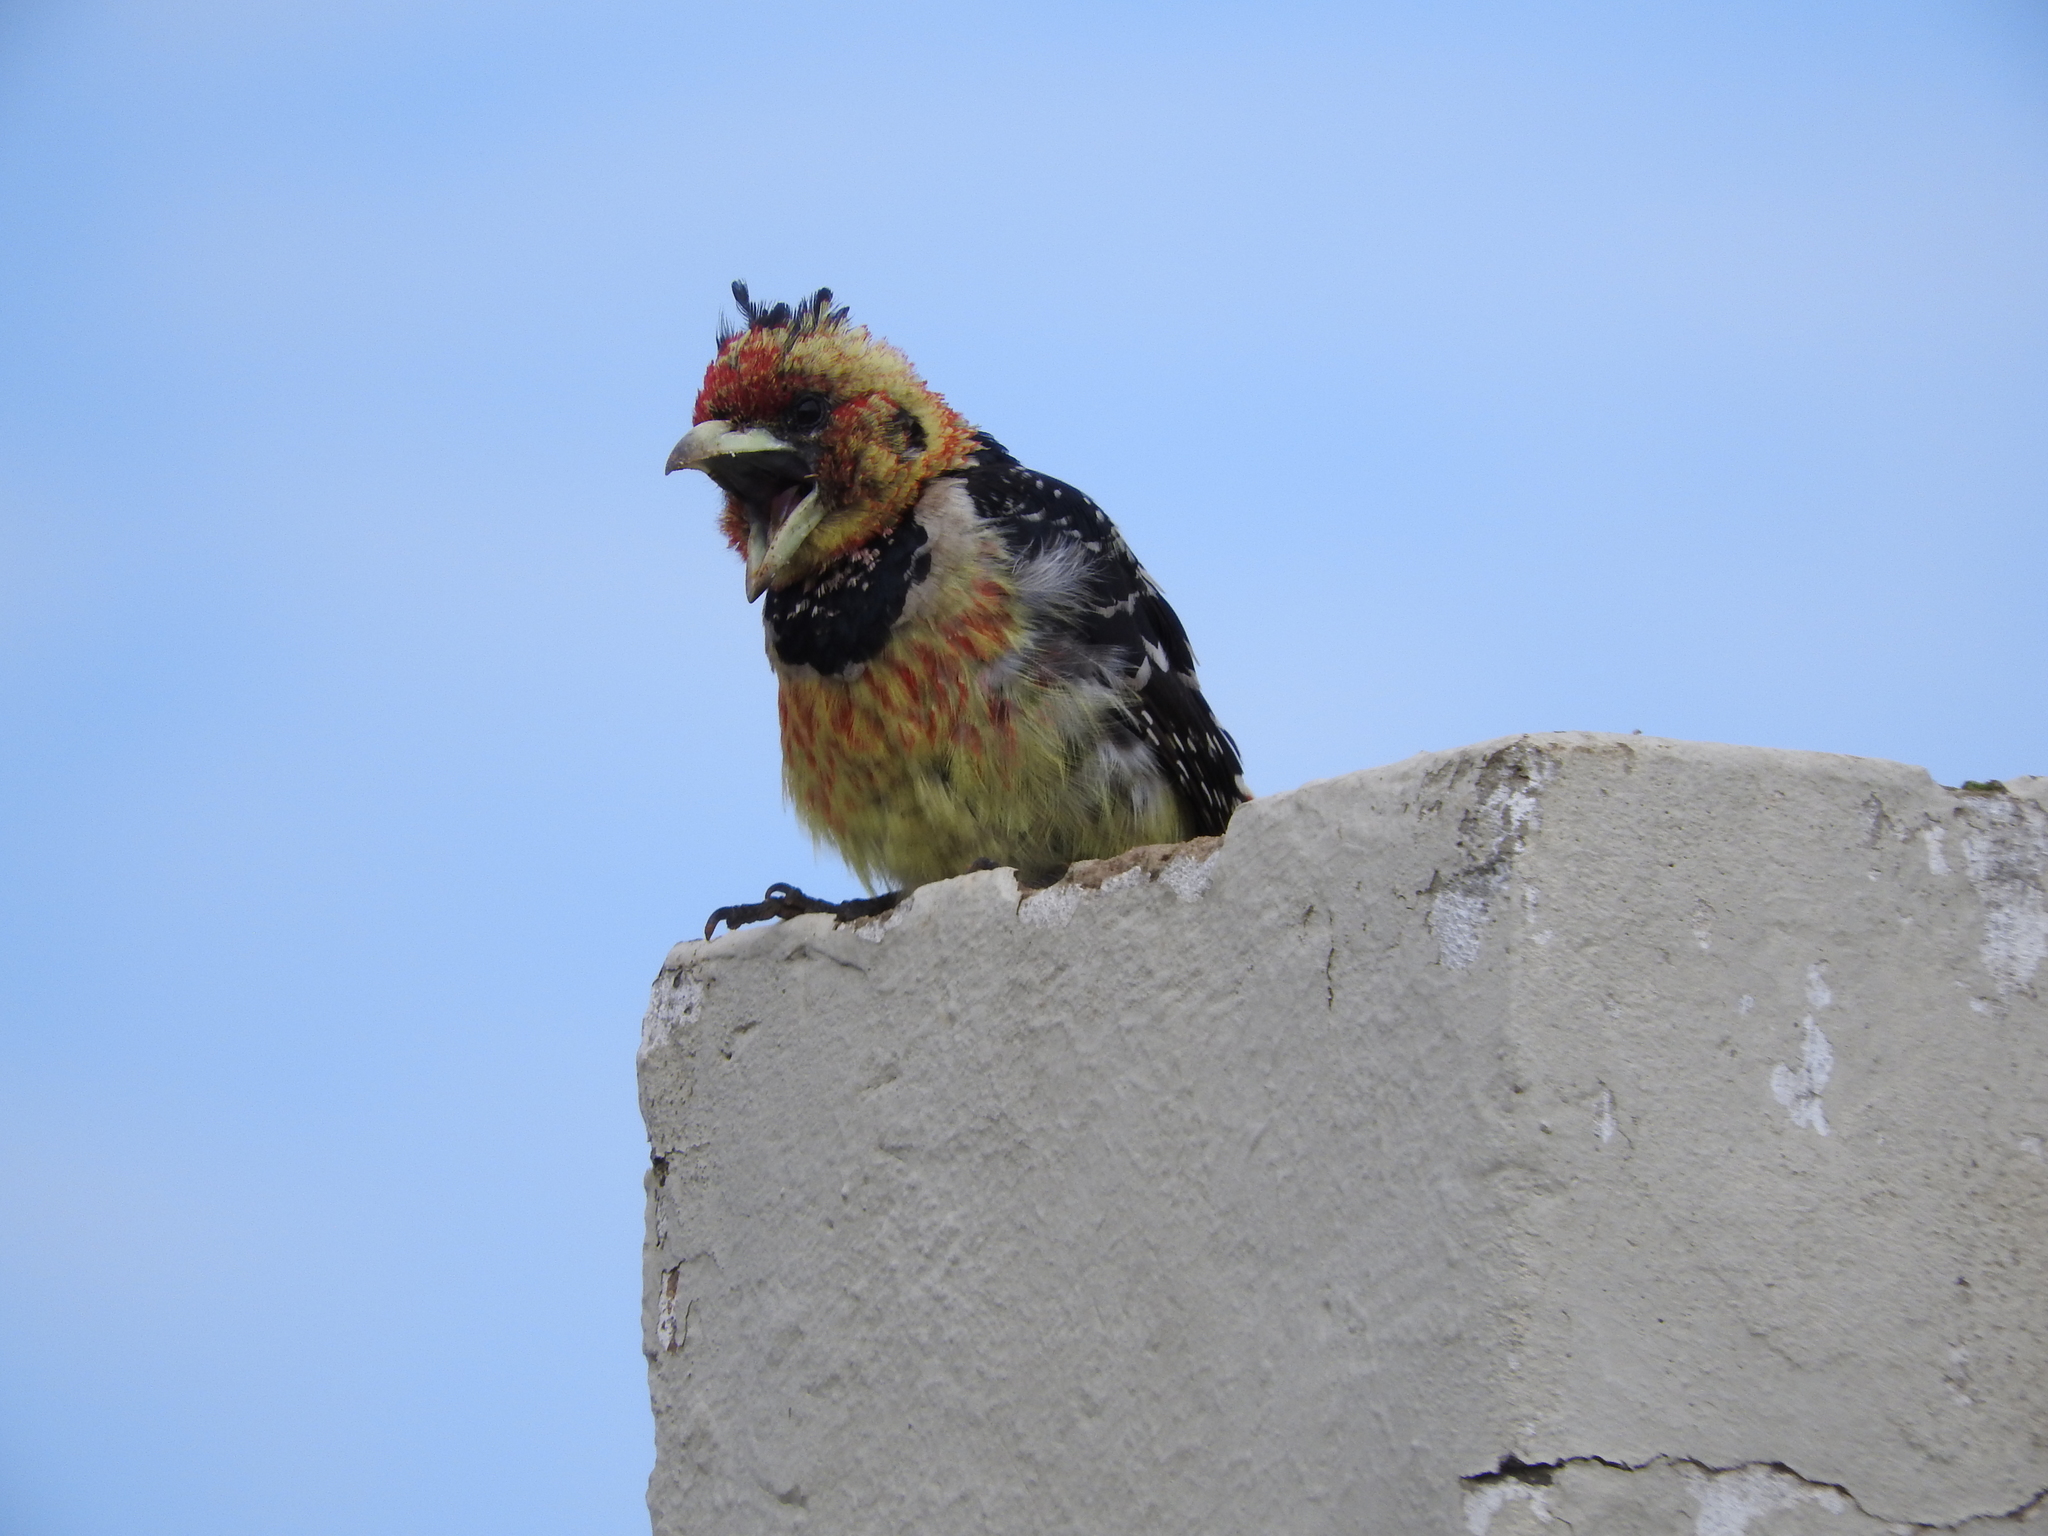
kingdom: Animalia
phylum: Chordata
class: Aves
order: Piciformes
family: Lybiidae
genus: Trachyphonus
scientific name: Trachyphonus vaillantii
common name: Crested barbet
